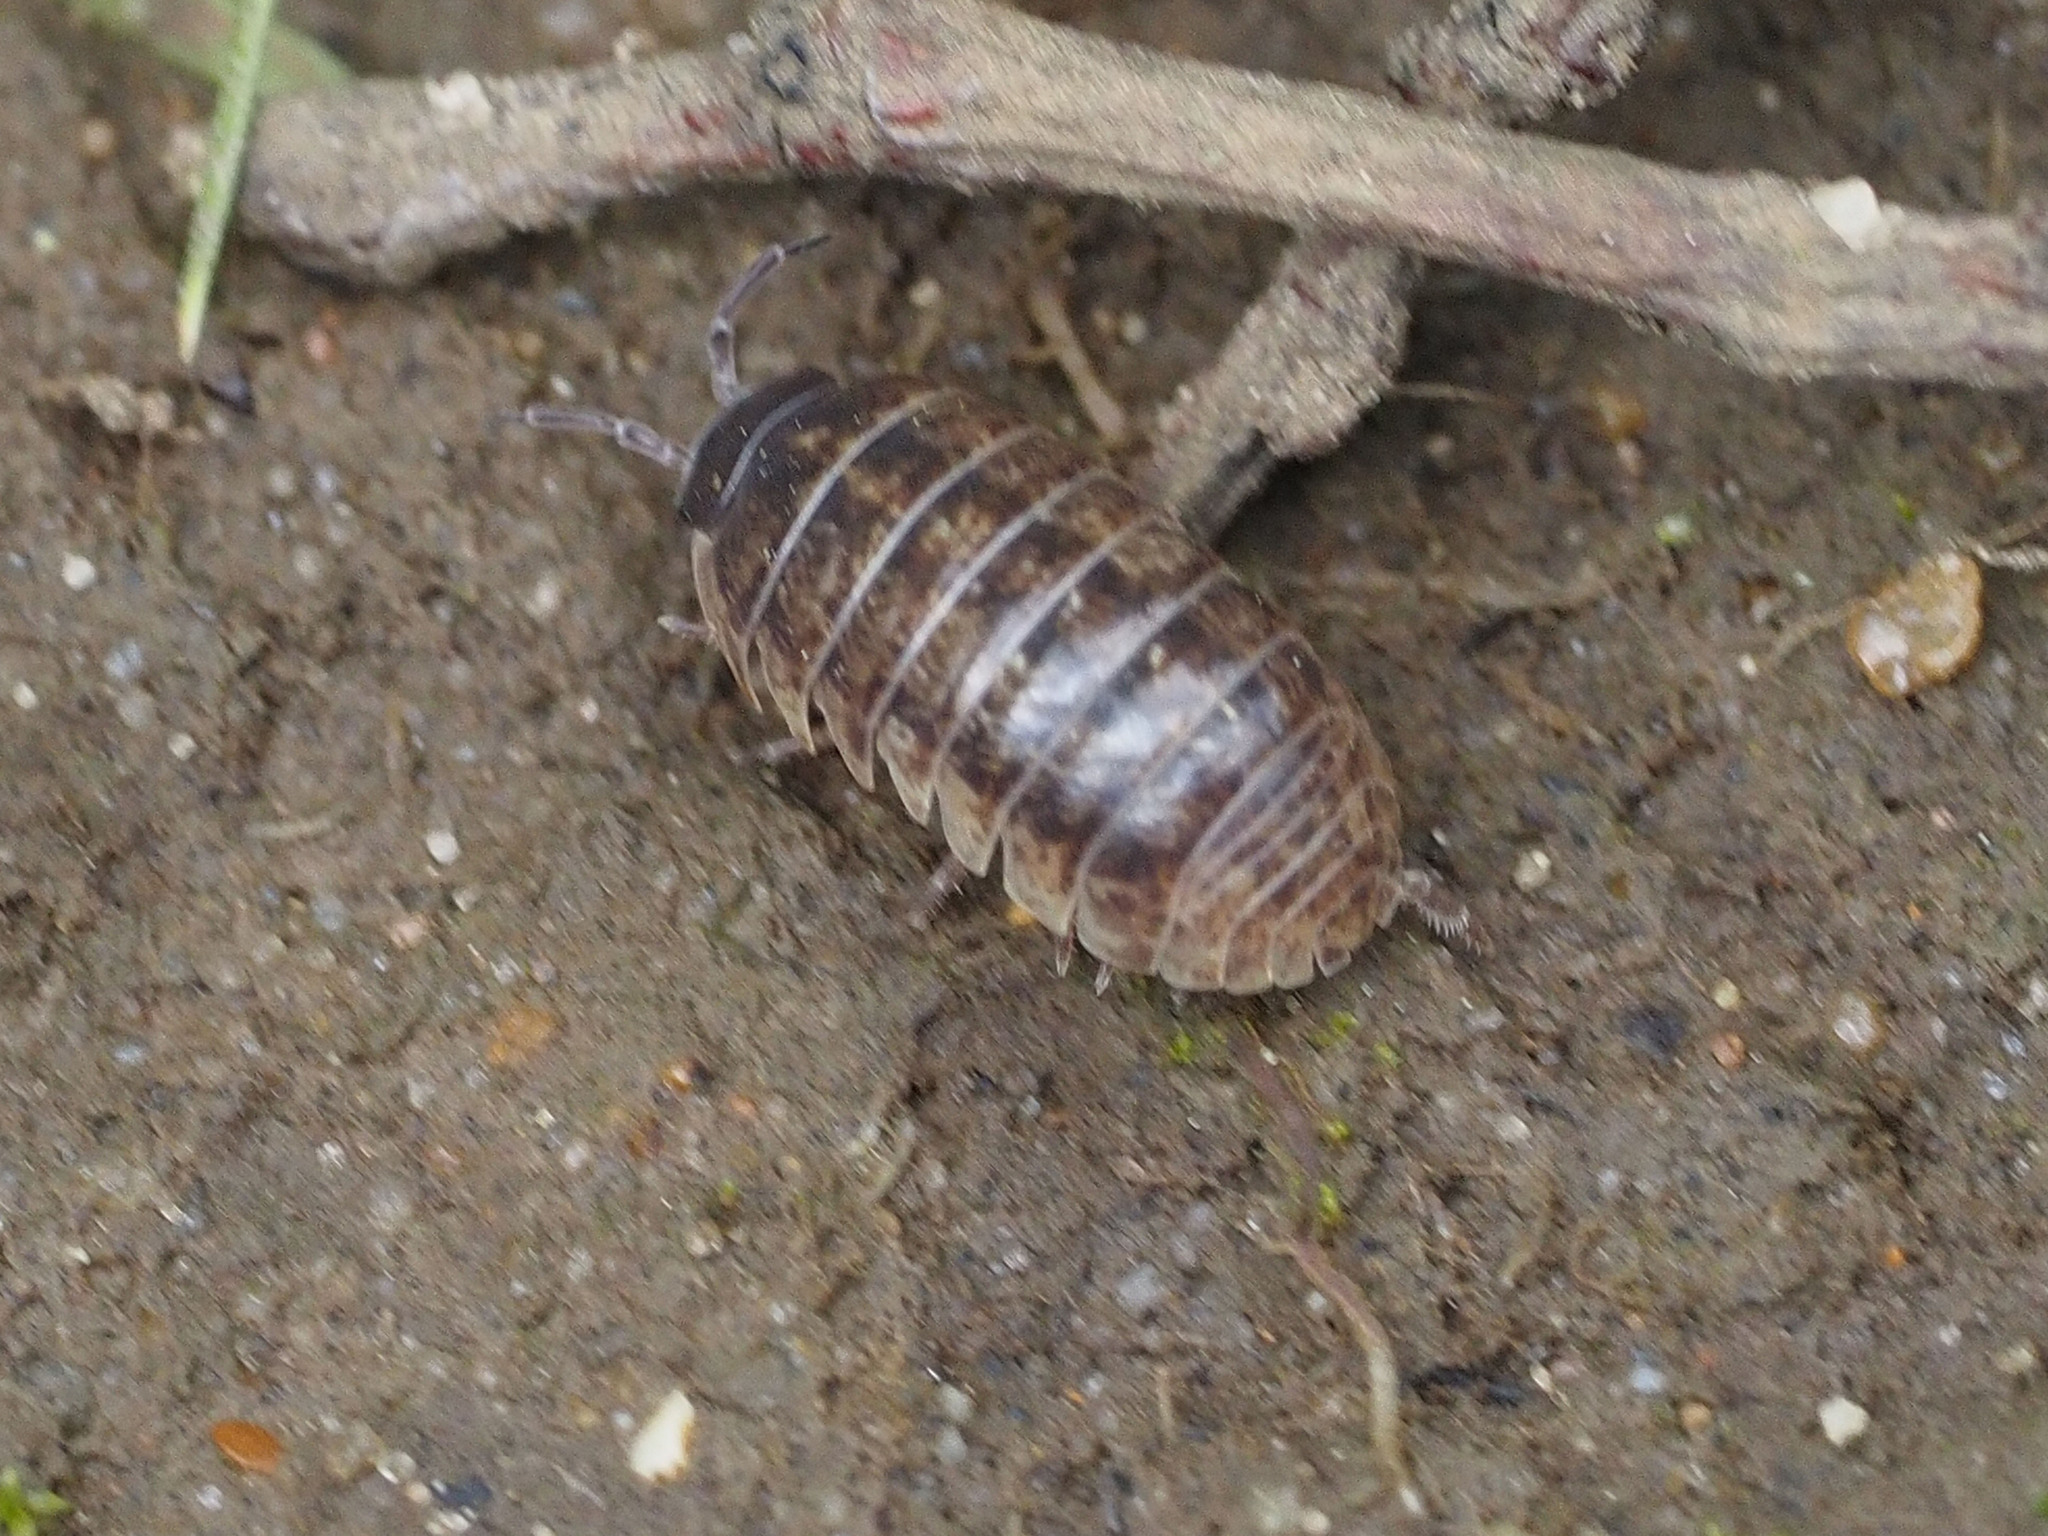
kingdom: Animalia
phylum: Arthropoda
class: Malacostraca
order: Isopoda
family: Armadillidiidae
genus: Armadillidium
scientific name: Armadillidium vulgare
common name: Common pill woodlouse
